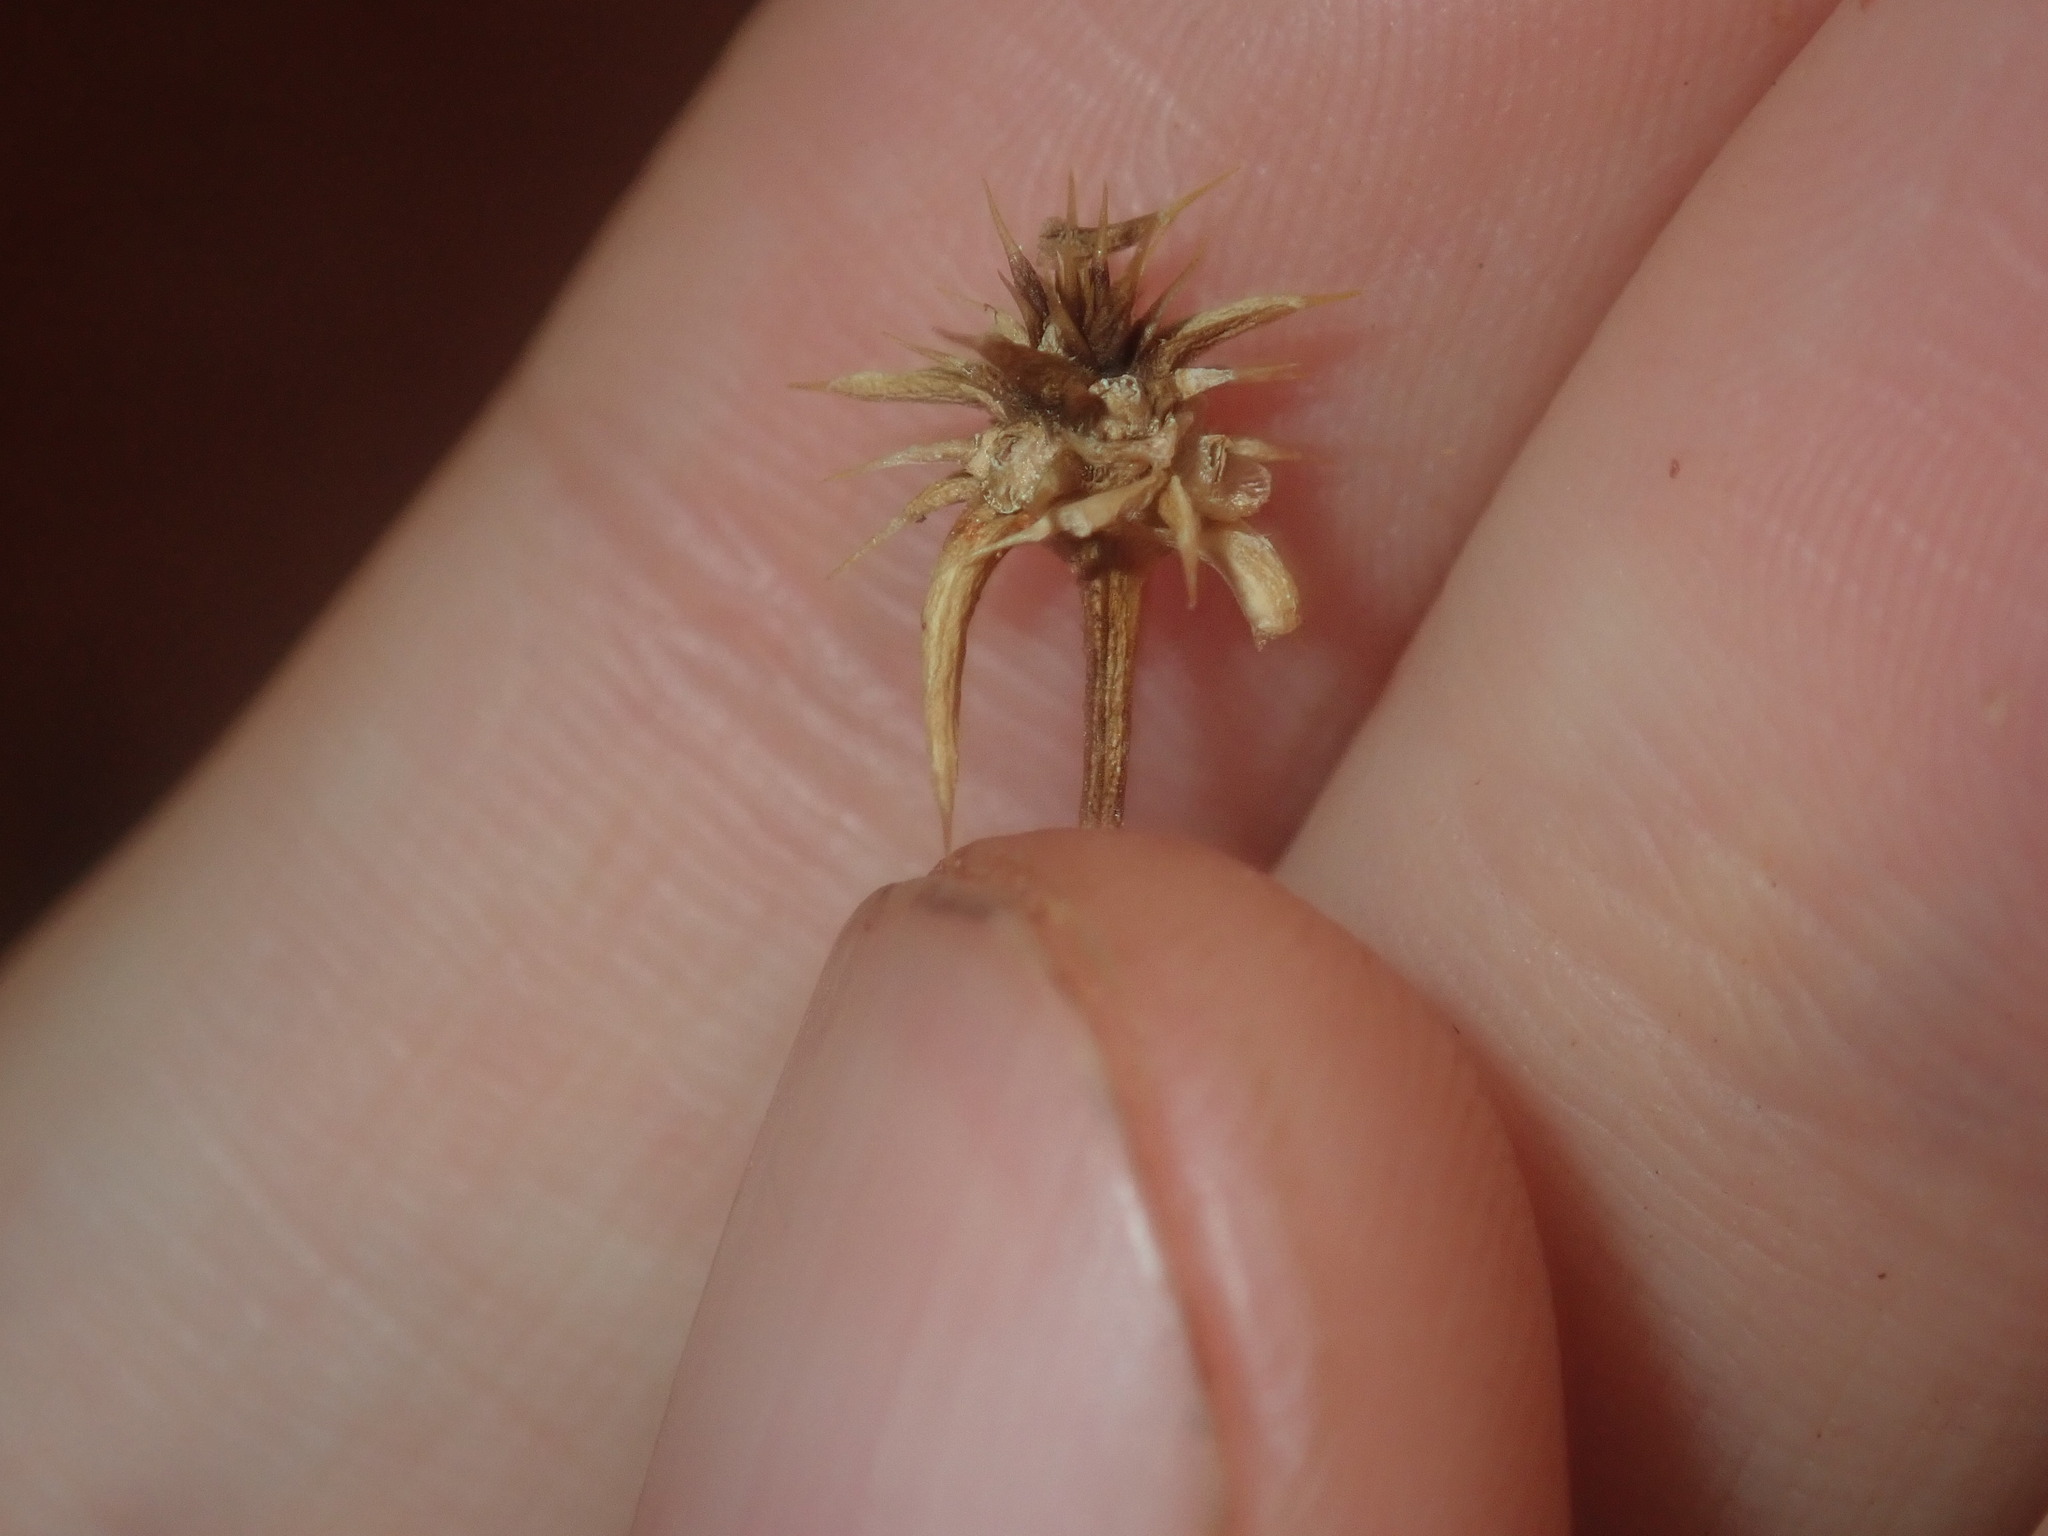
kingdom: Plantae
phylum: Tracheophyta
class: Magnoliopsida
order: Caryophyllales
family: Amaranthaceae
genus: Salsola
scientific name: Salsola australis
